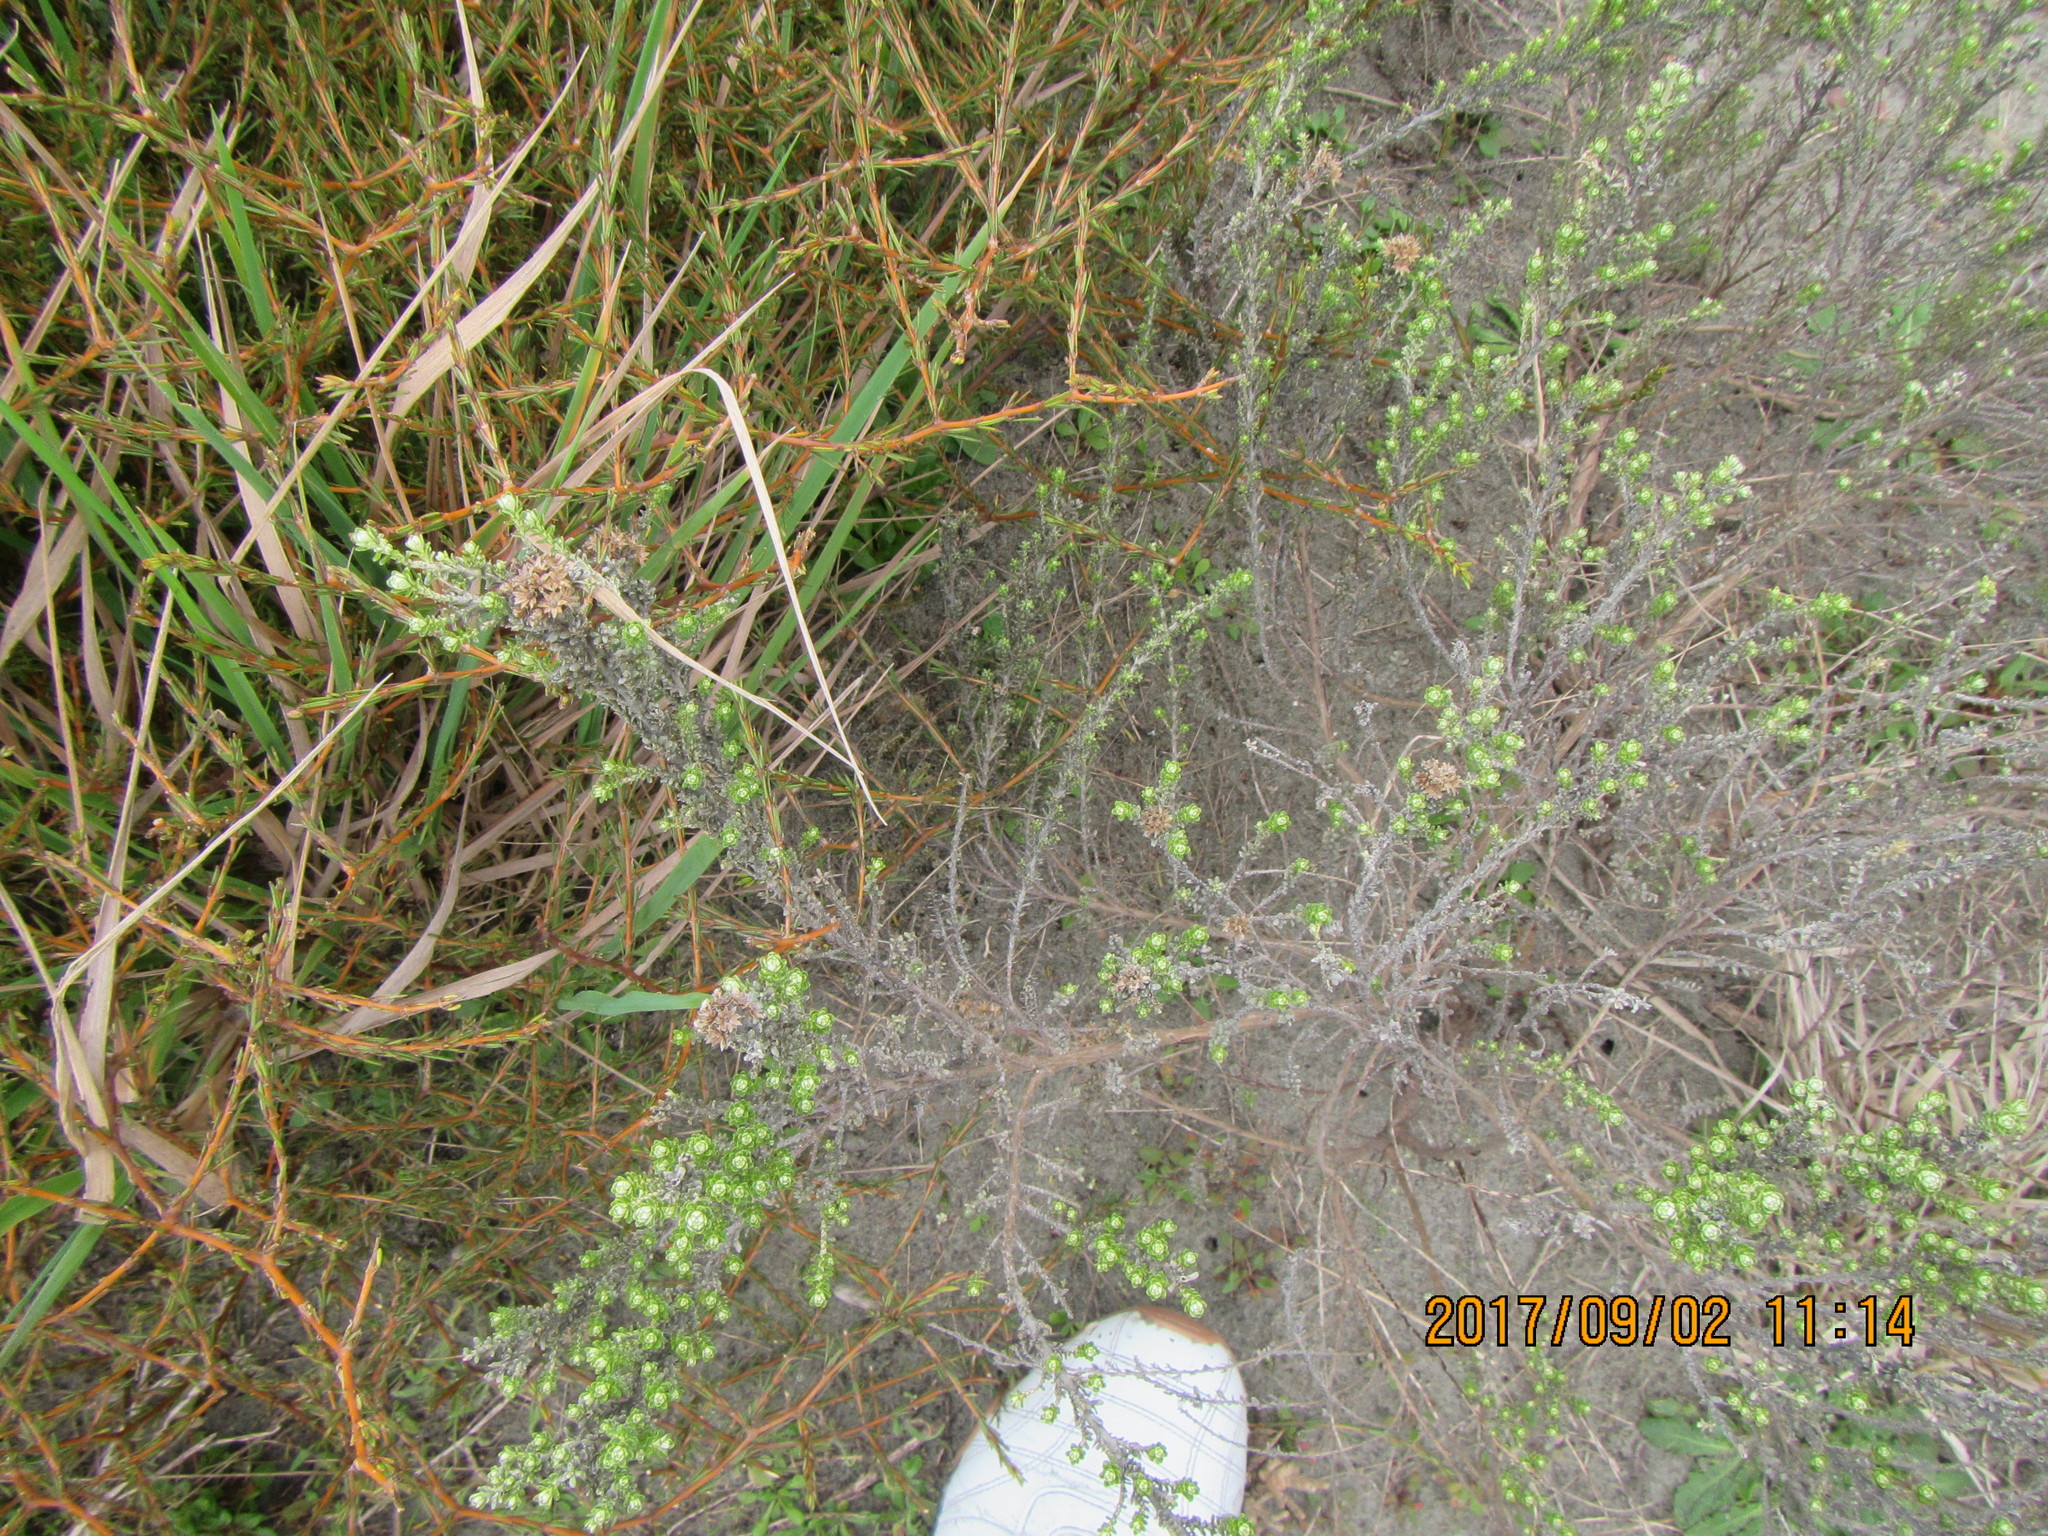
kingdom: Plantae
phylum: Tracheophyta
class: Magnoliopsida
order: Asterales
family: Asteraceae
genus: Ozothamnus
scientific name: Ozothamnus leptophyllus
